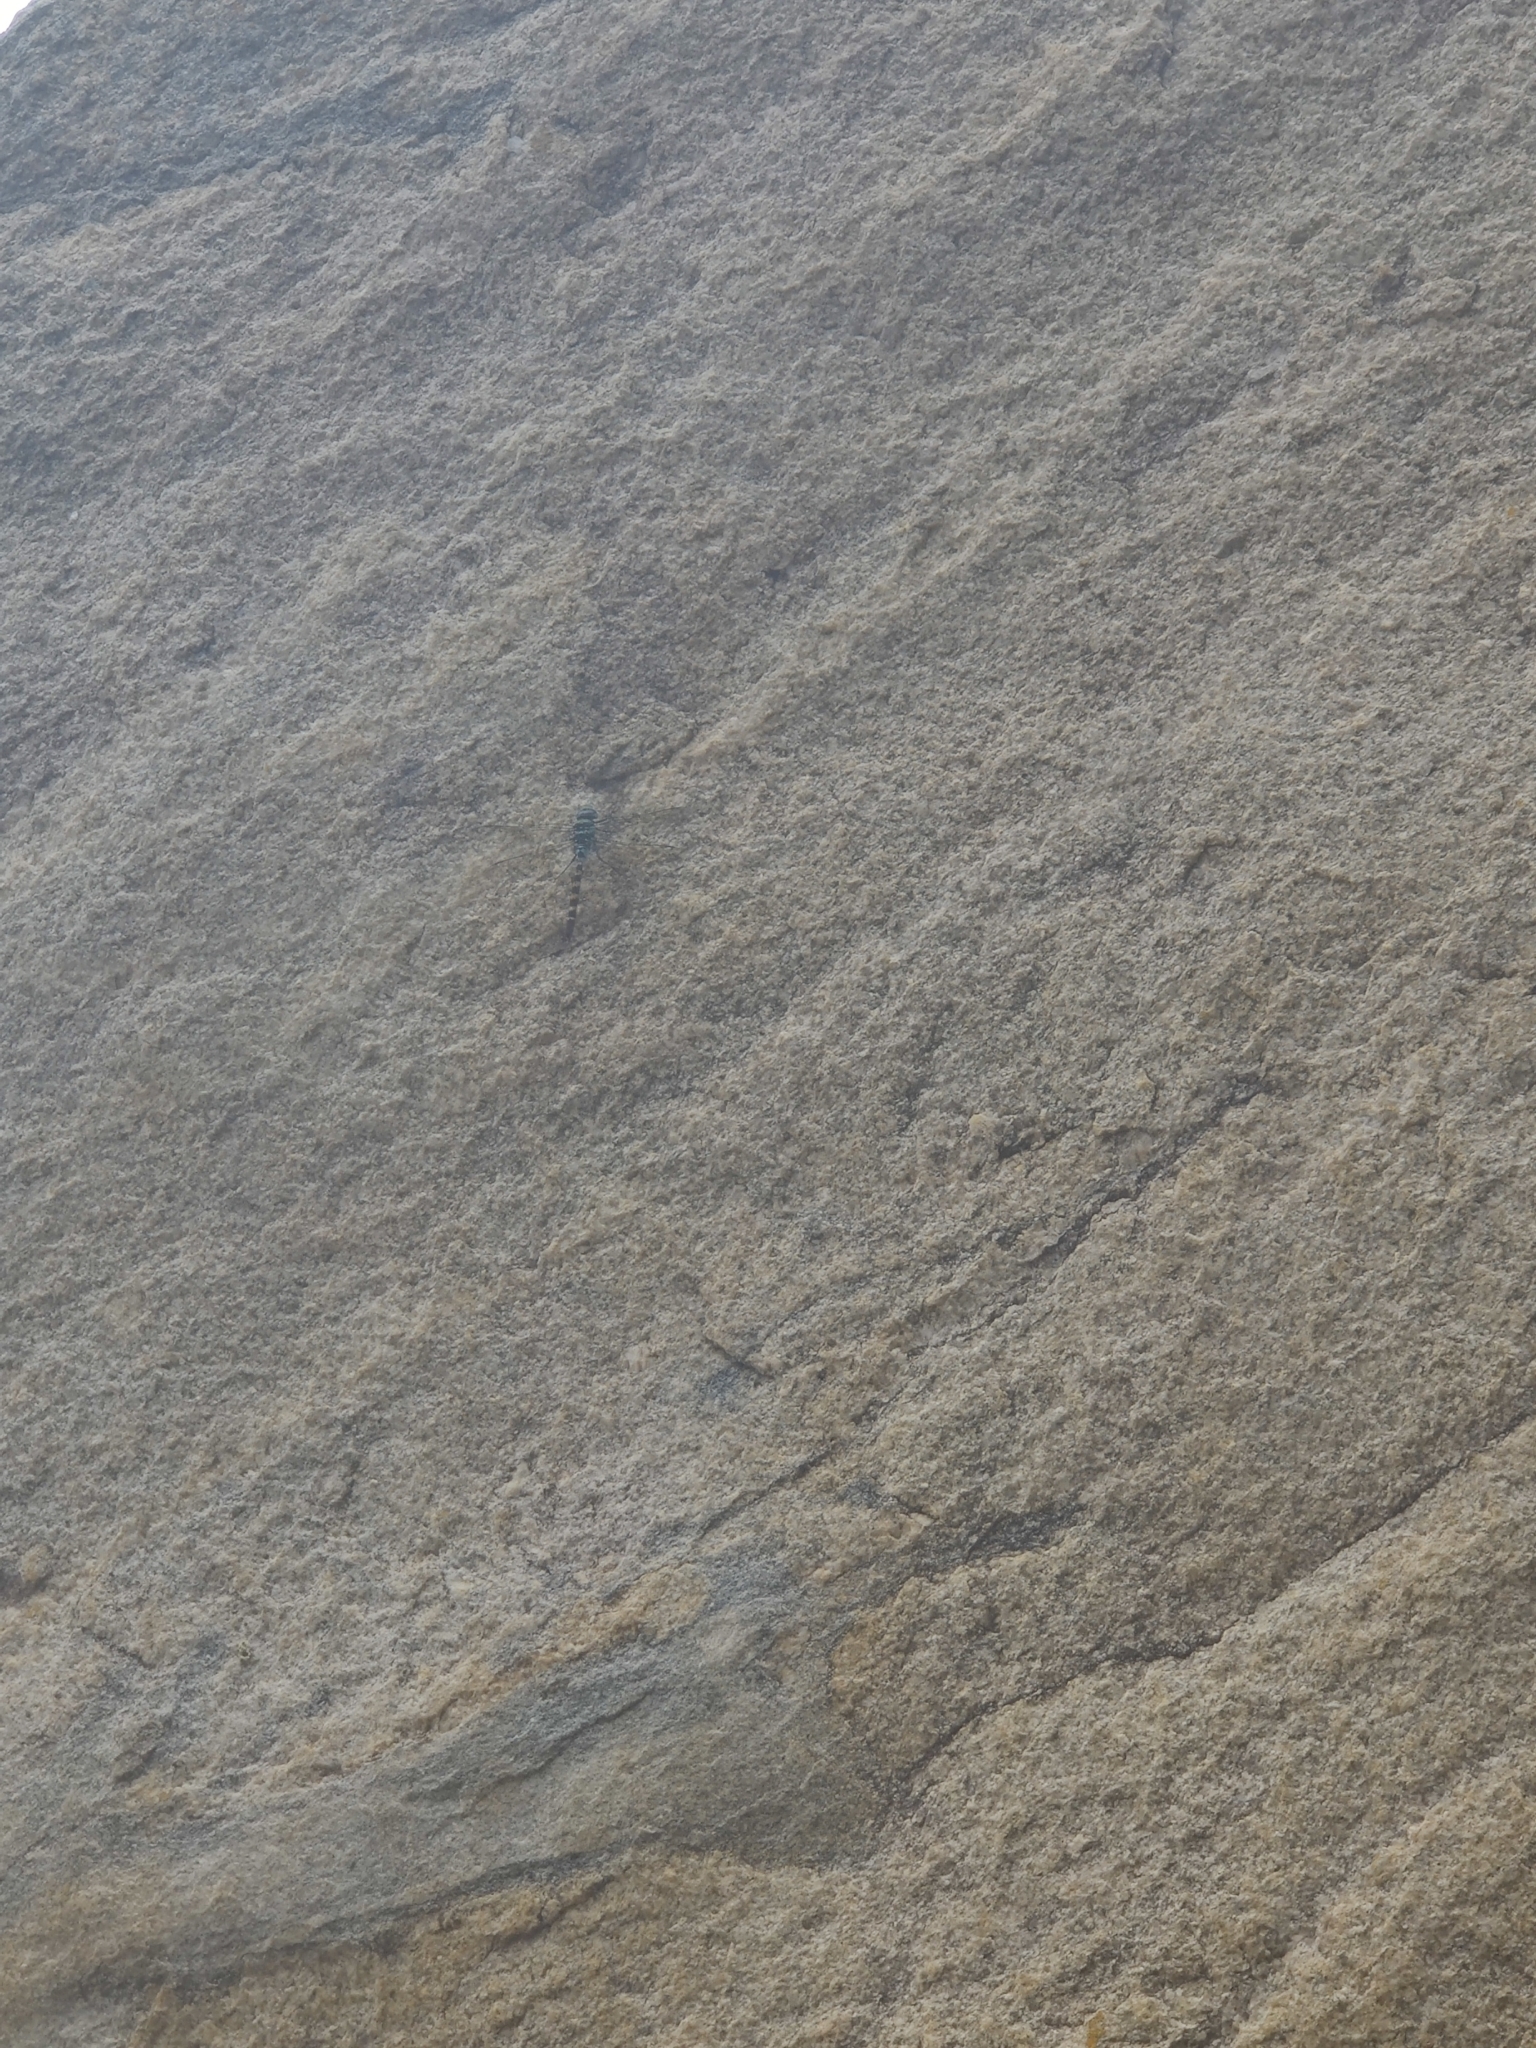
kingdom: Animalia
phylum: Arthropoda
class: Insecta
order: Odonata
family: Aeshnidae
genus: Anax
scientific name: Anax immaculifrons
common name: Magnificent emperor
